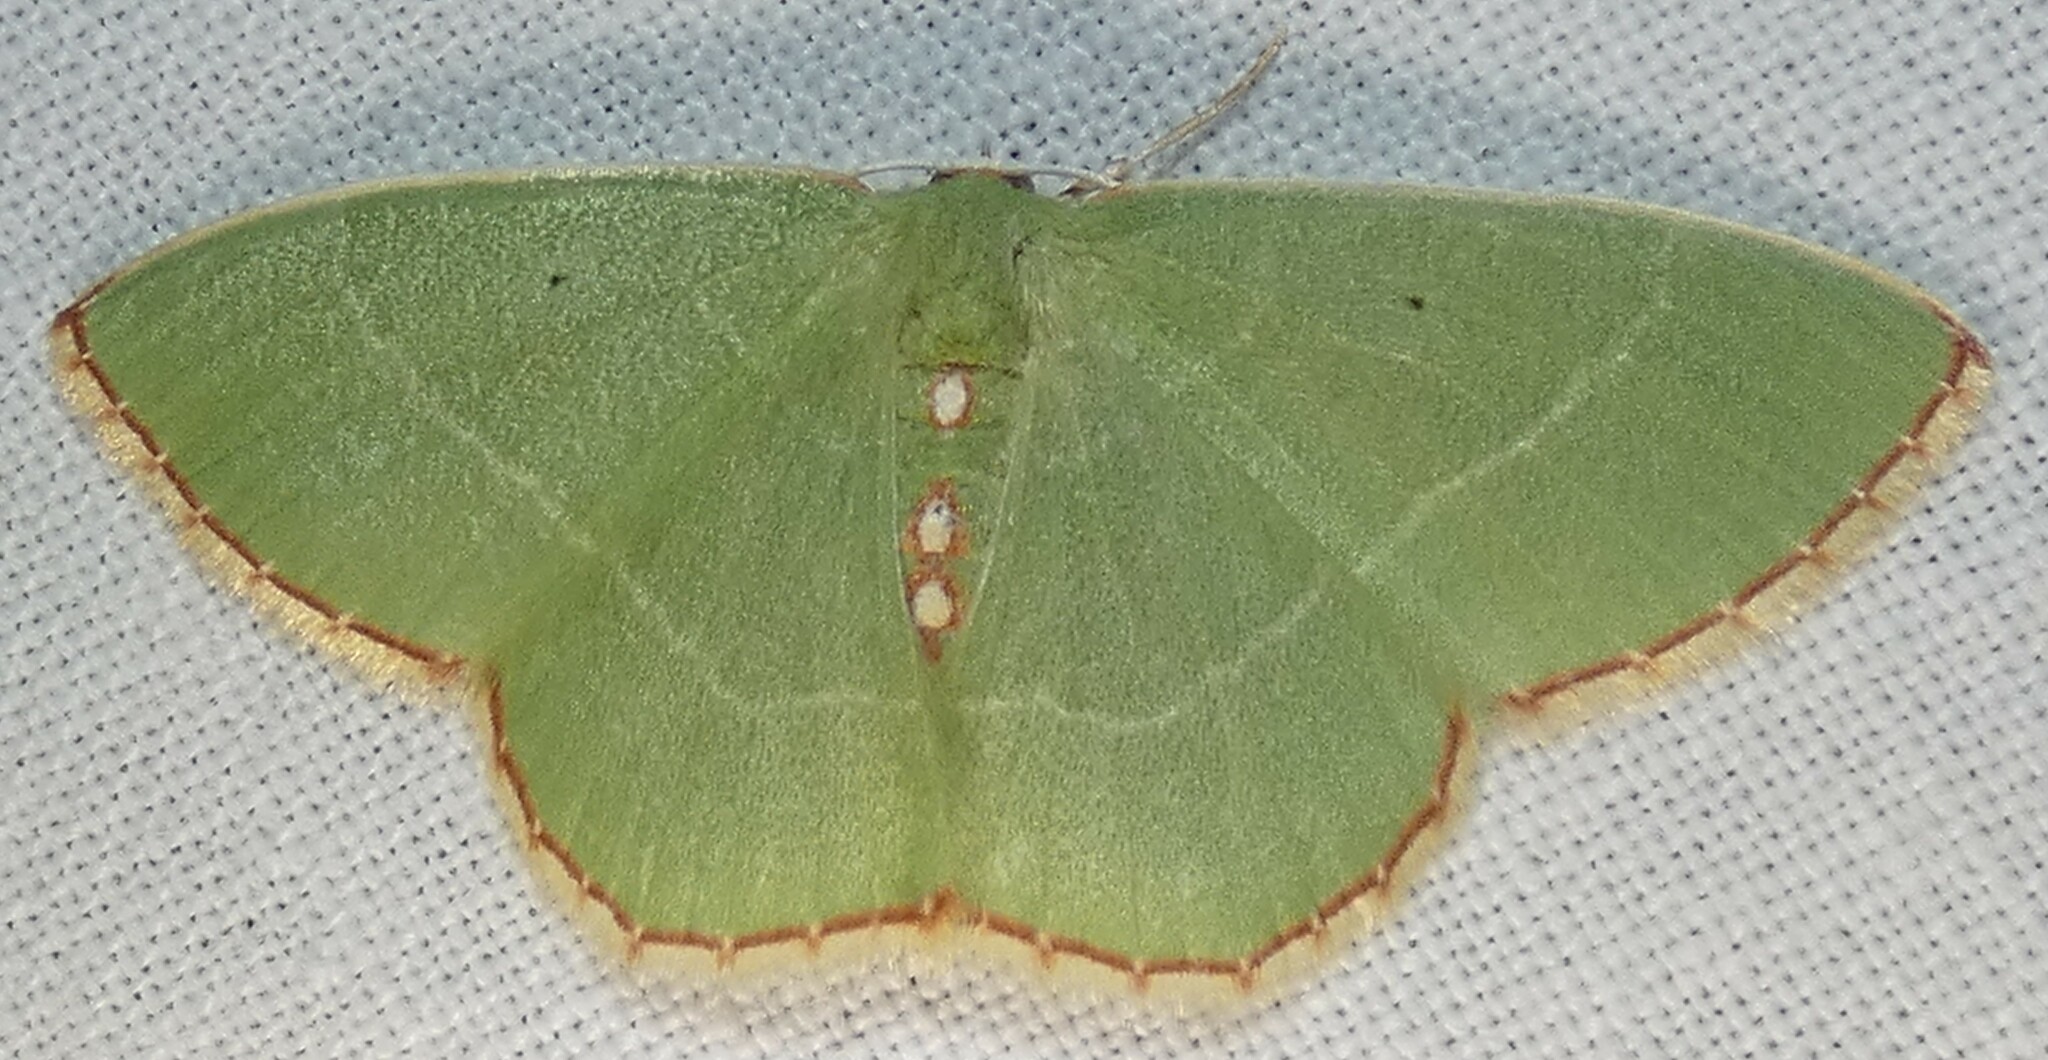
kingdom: Animalia
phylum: Arthropoda
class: Insecta
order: Lepidoptera
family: Geometridae
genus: Nemoria
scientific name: Nemoria lixaria
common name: Red-bordered emerald
